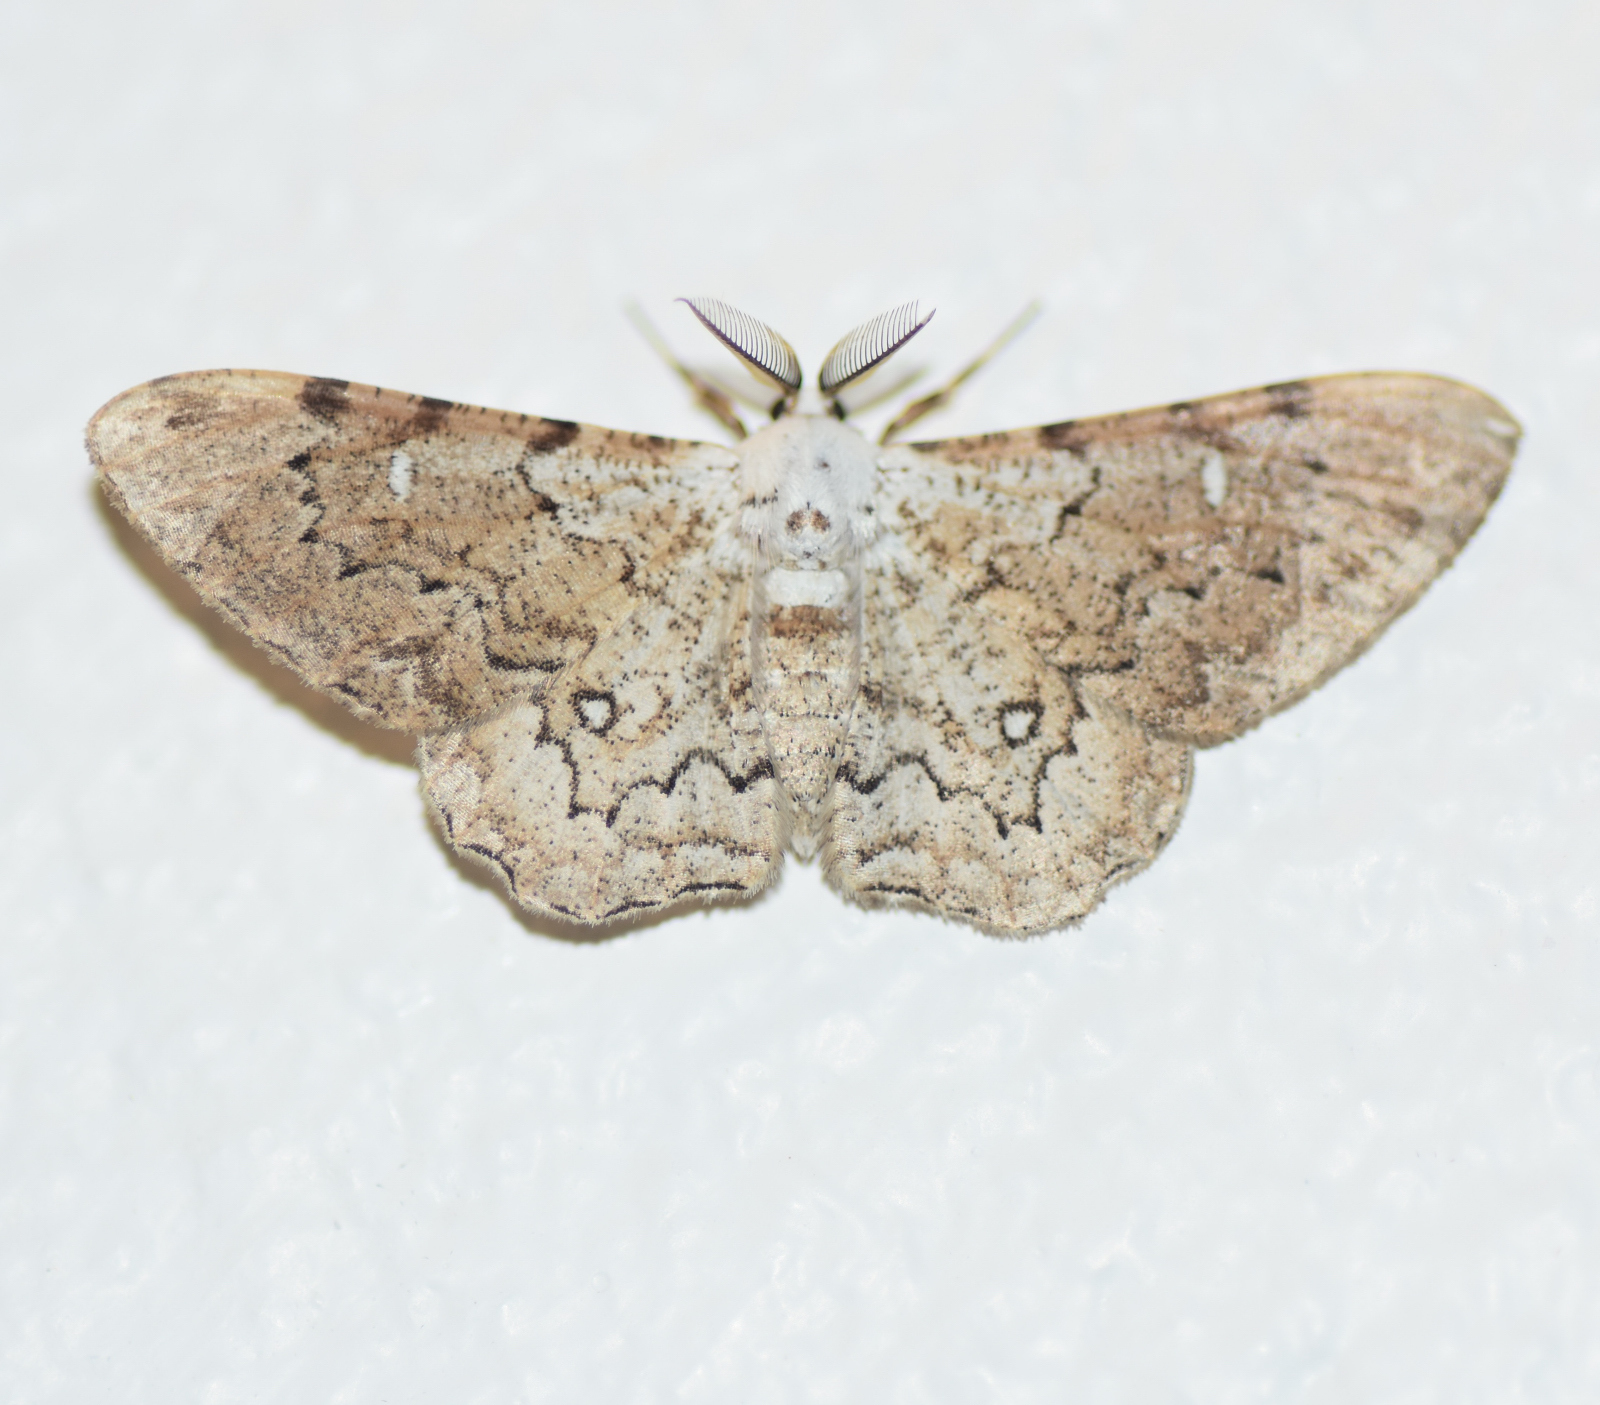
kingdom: Animalia
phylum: Arthropoda
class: Insecta
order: Lepidoptera
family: Geometridae
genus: Thyrinteina
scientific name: Thyrinteina arnobia
